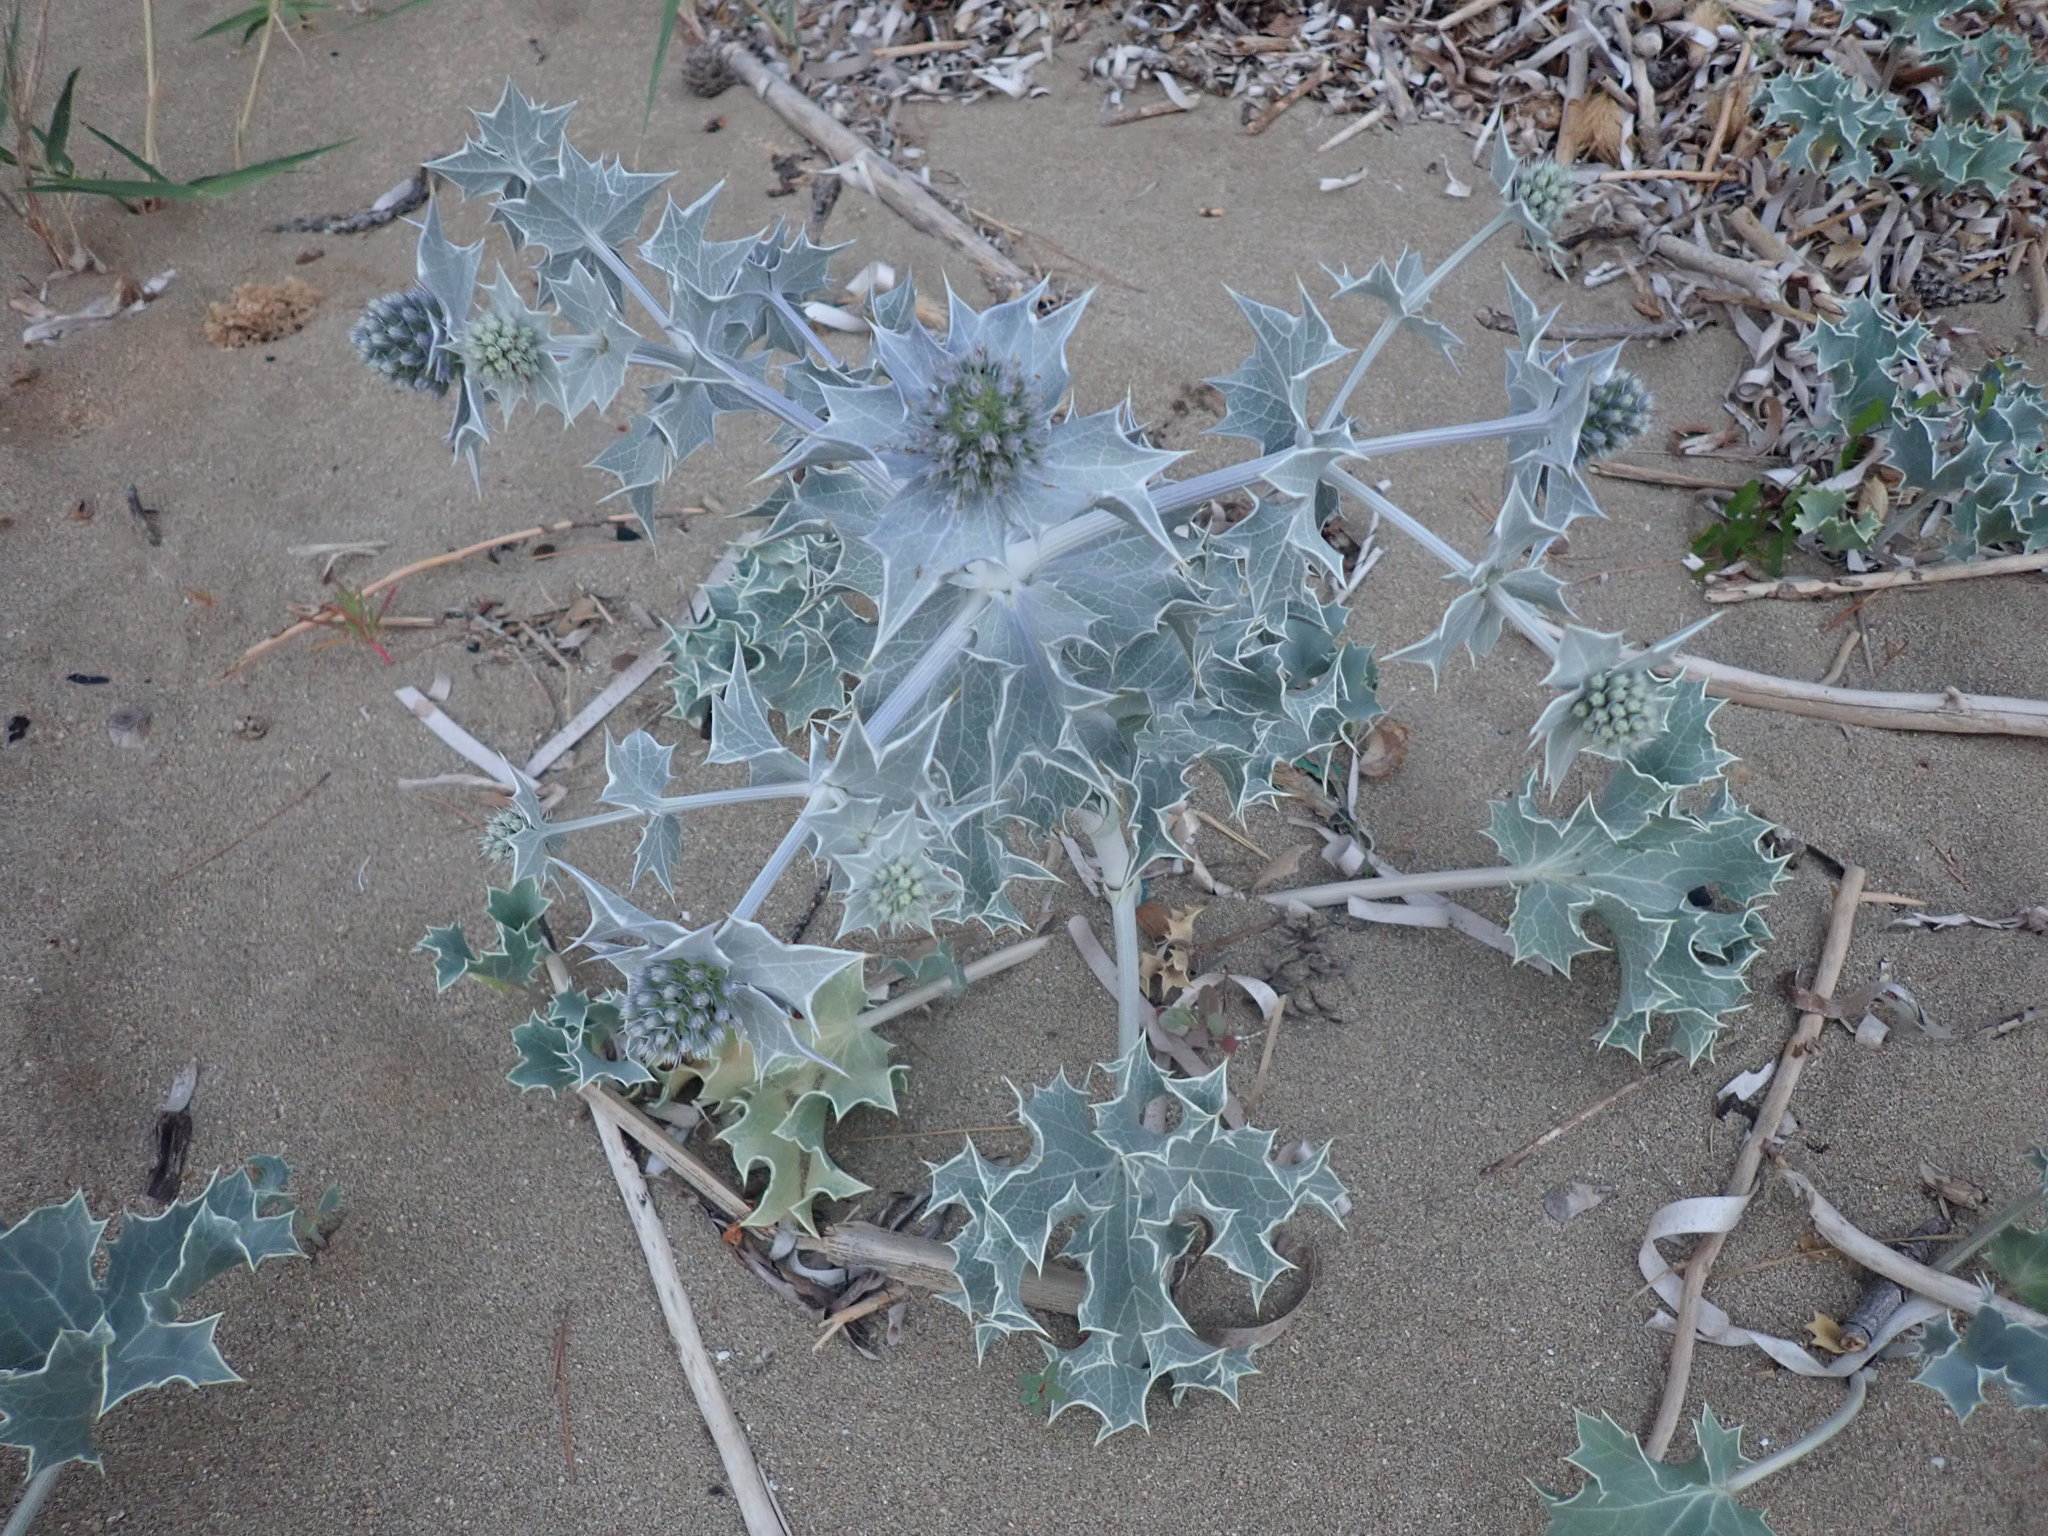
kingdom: Plantae
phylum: Tracheophyta
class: Magnoliopsida
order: Apiales
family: Apiaceae
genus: Eryngium
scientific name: Eryngium maritimum
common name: Sea-holly
